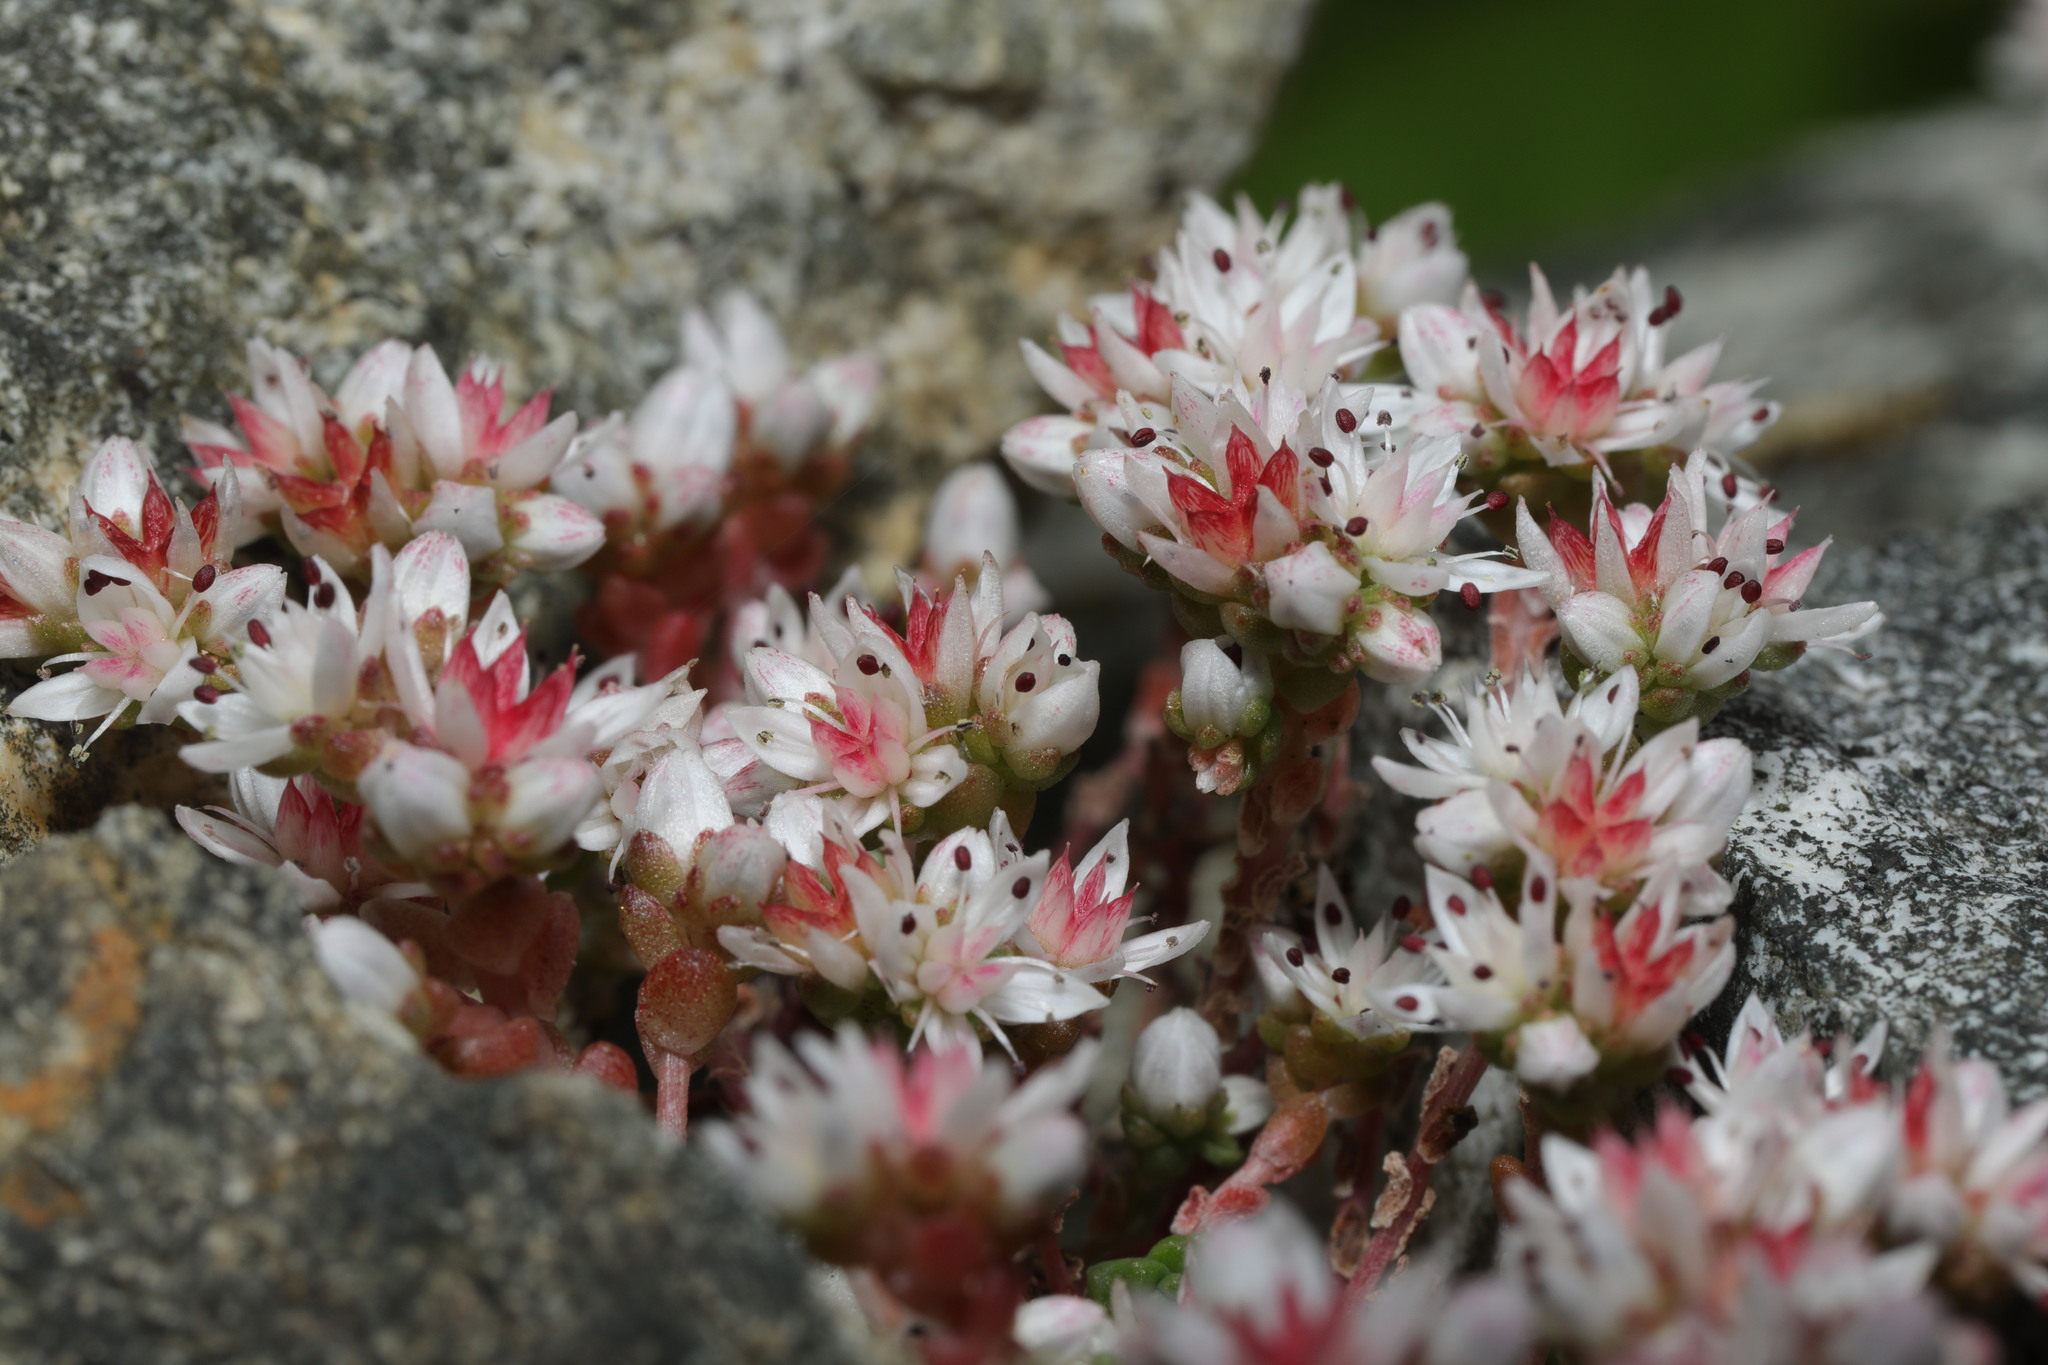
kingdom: Plantae
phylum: Tracheophyta
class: Magnoliopsida
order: Saxifragales
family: Crassulaceae
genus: Sedum
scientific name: Sedum anglicum
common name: English stonecrop
